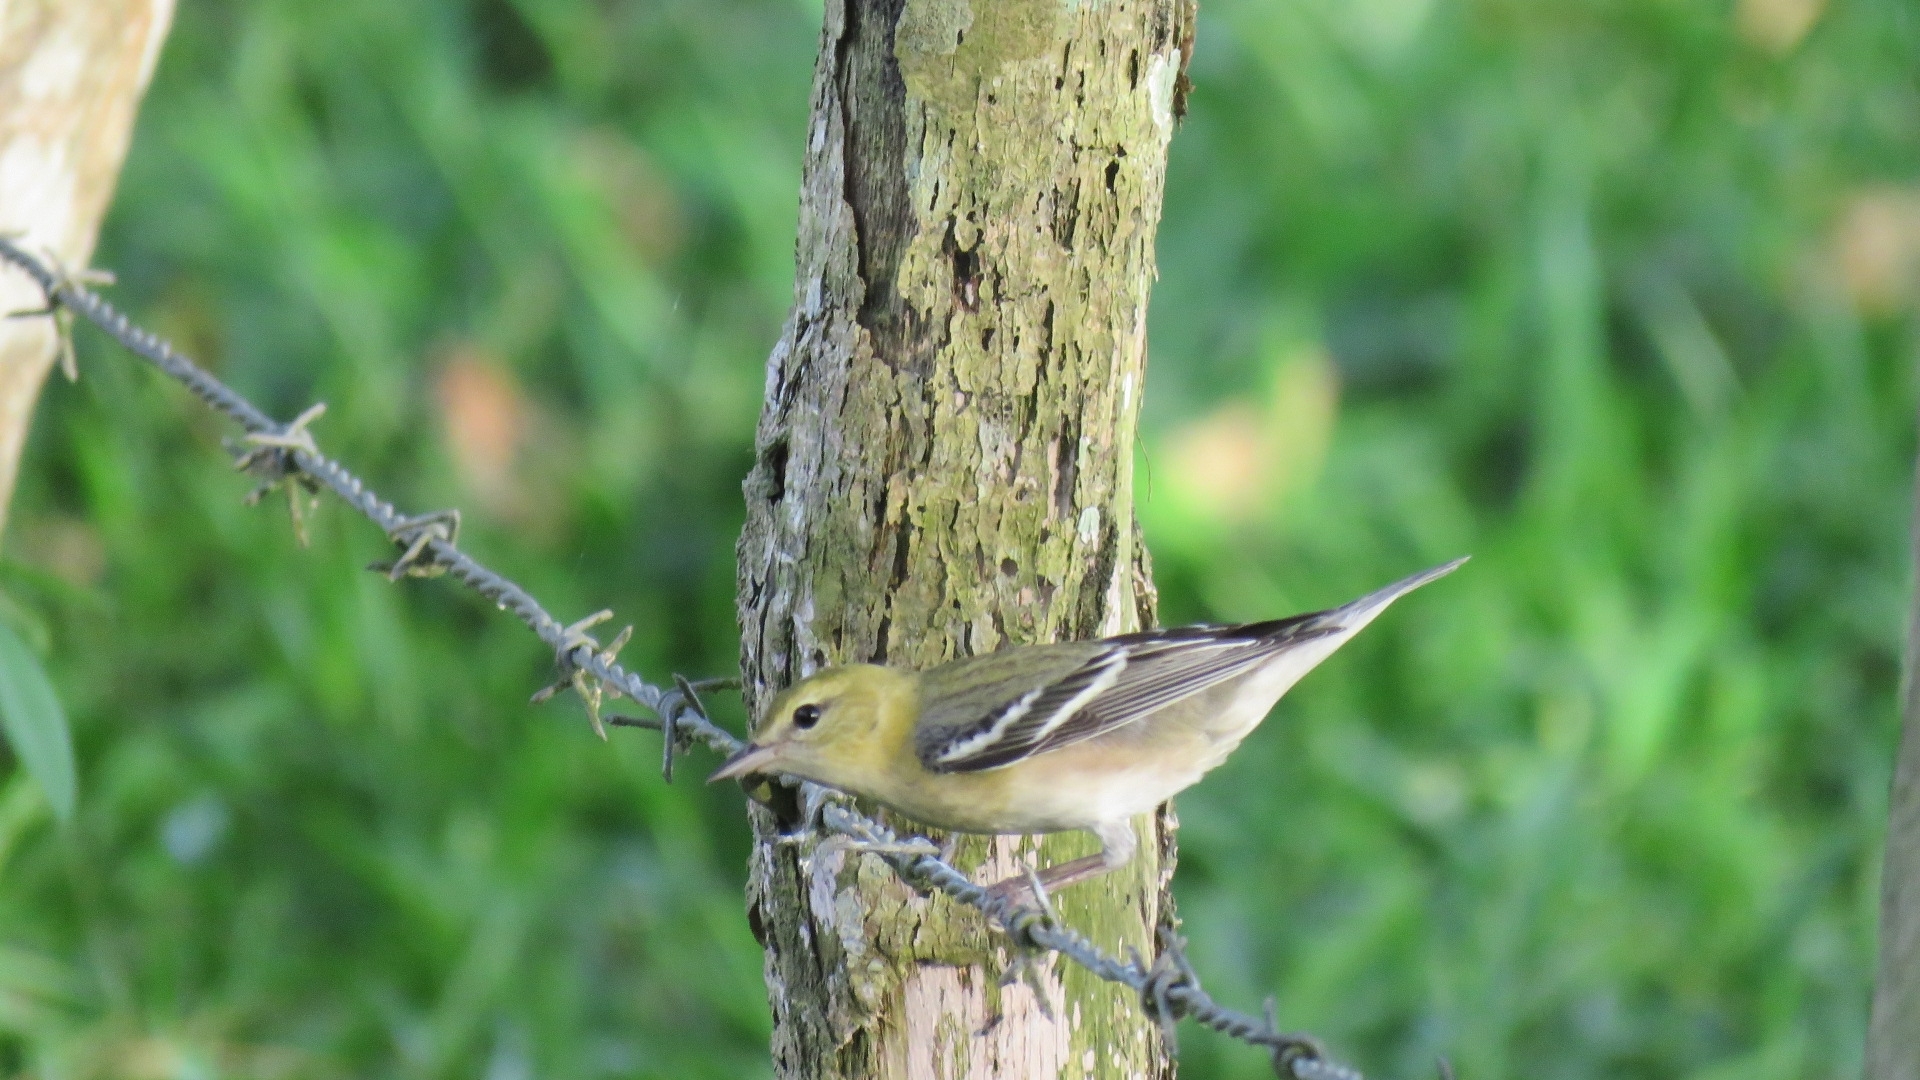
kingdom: Animalia
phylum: Chordata
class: Aves
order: Passeriformes
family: Parulidae
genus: Setophaga
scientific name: Setophaga castanea
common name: Bay-breasted warbler
